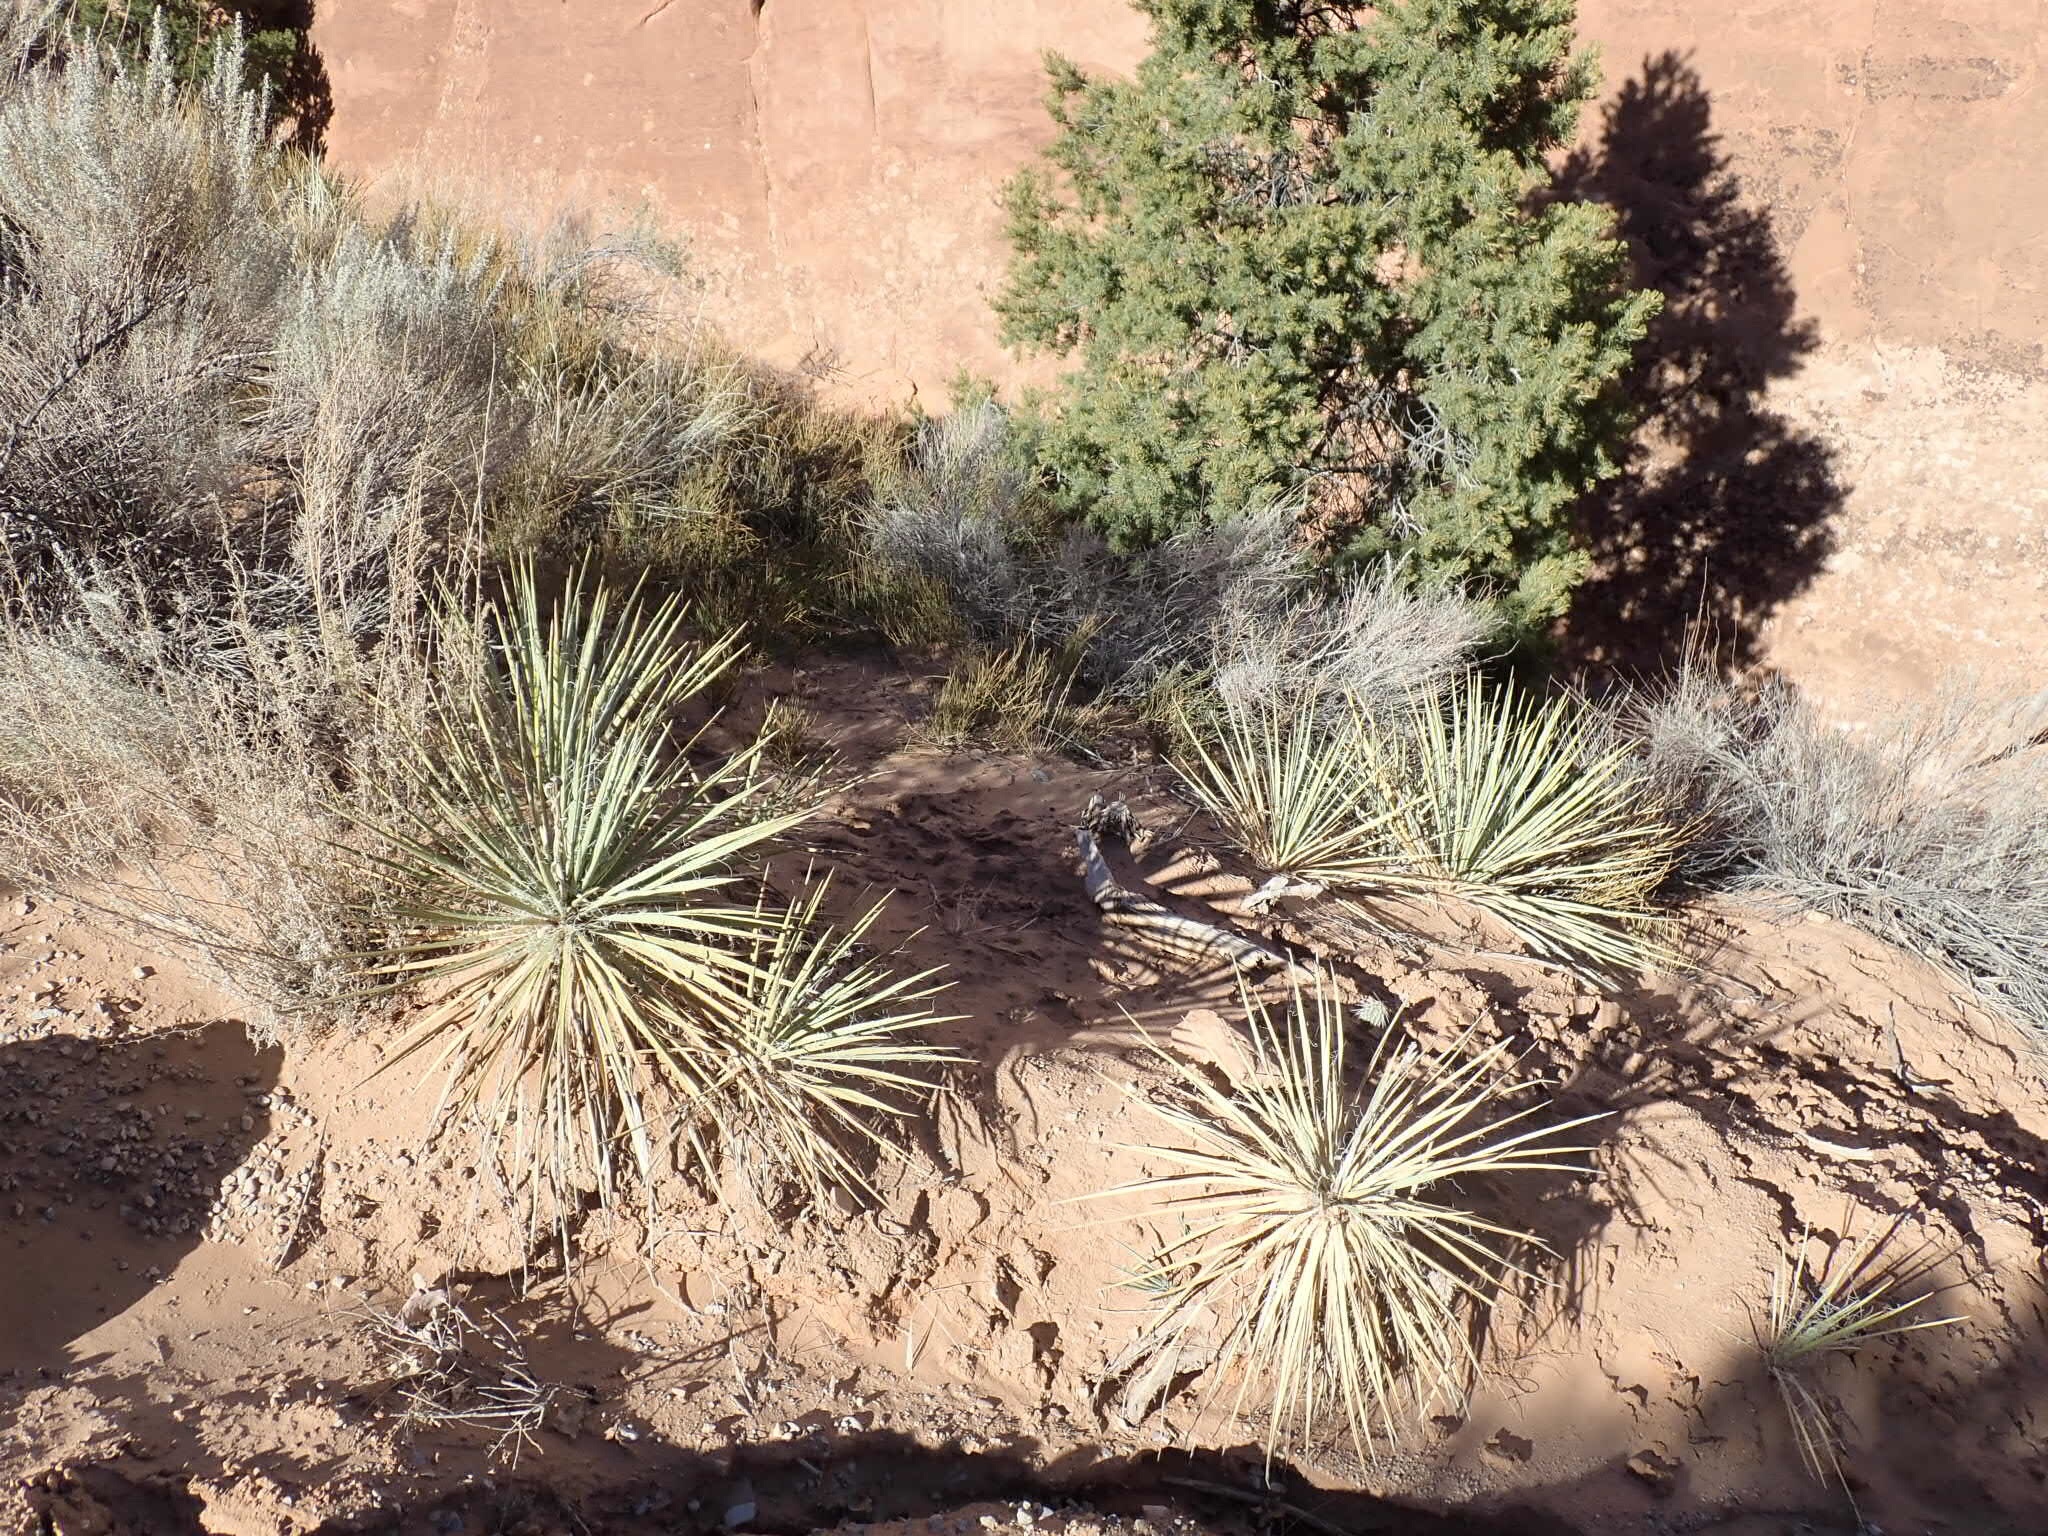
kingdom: Plantae
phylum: Tracheophyta
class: Liliopsida
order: Asparagales
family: Asparagaceae
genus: Yucca
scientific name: Yucca angustissima
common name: Narrowleaf yucca
